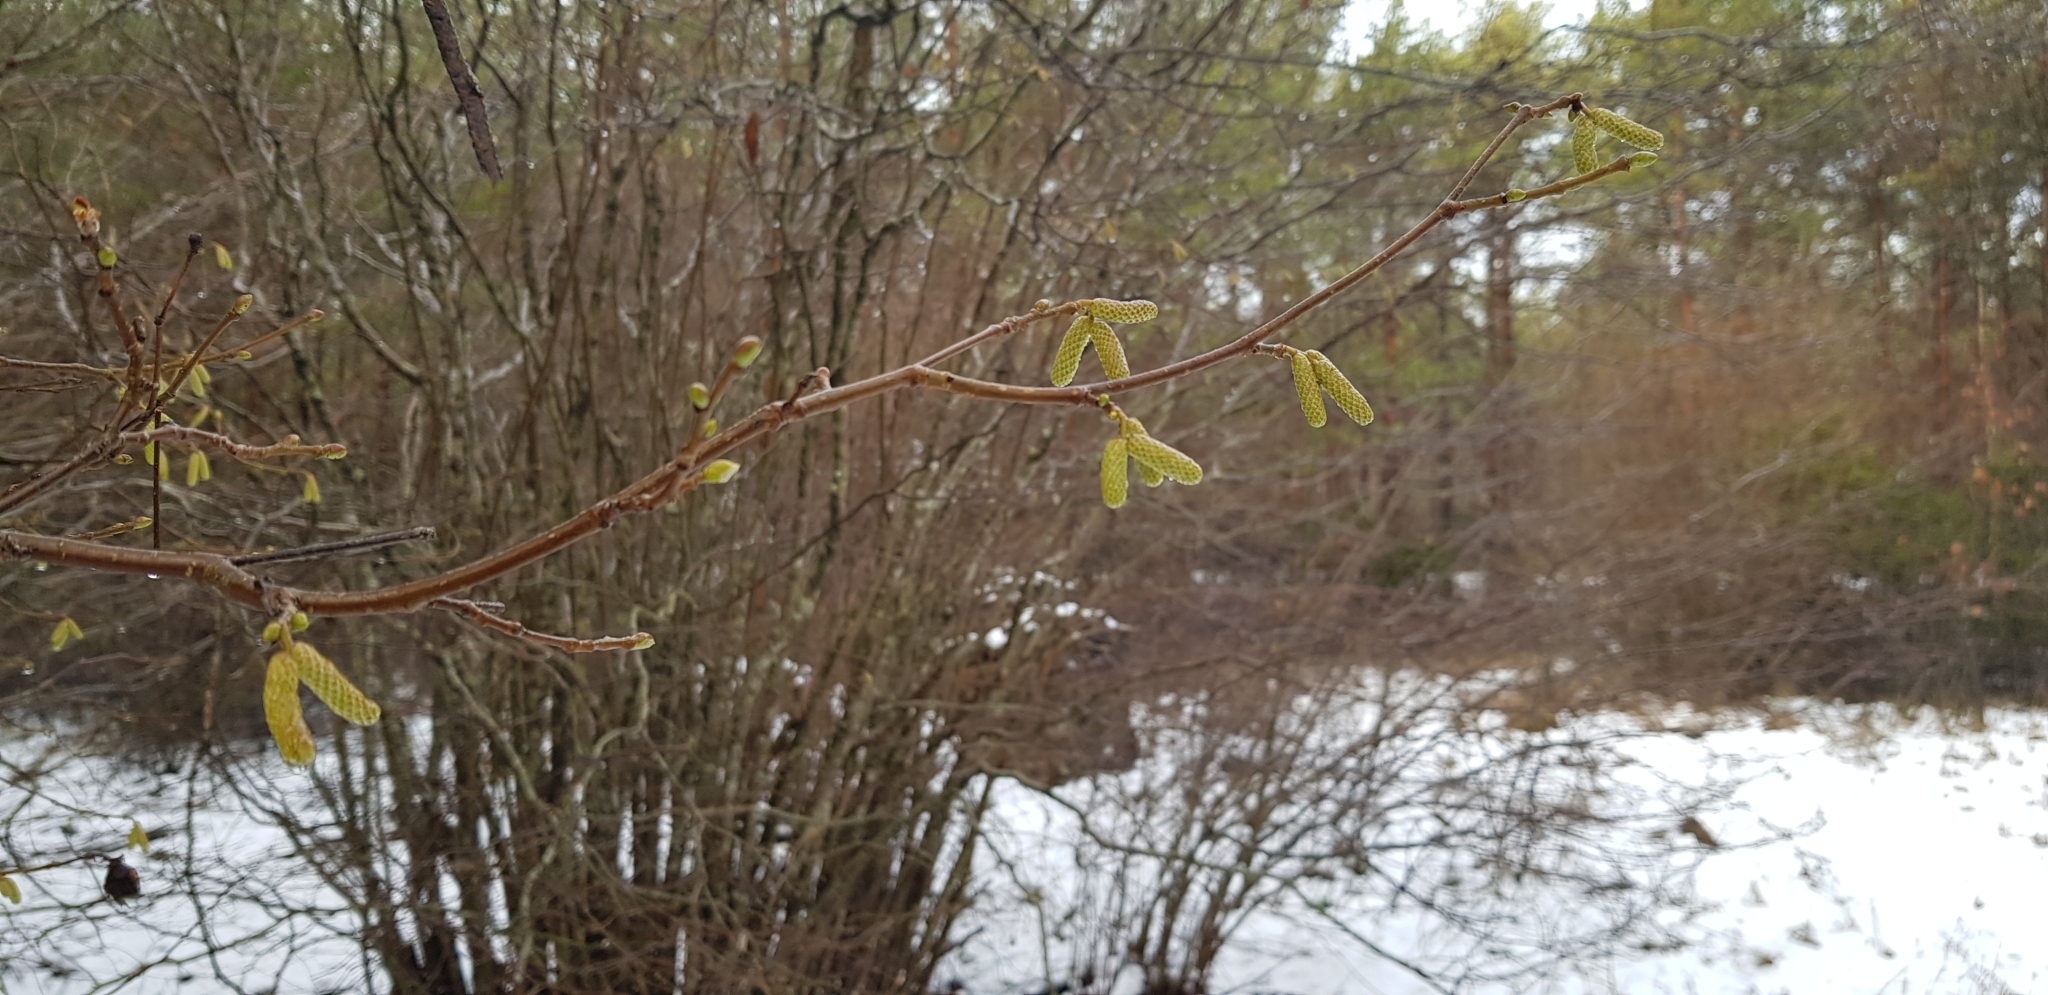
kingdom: Plantae
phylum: Tracheophyta
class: Magnoliopsida
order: Fagales
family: Betulaceae
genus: Corylus
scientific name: Corylus avellana
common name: European hazel
